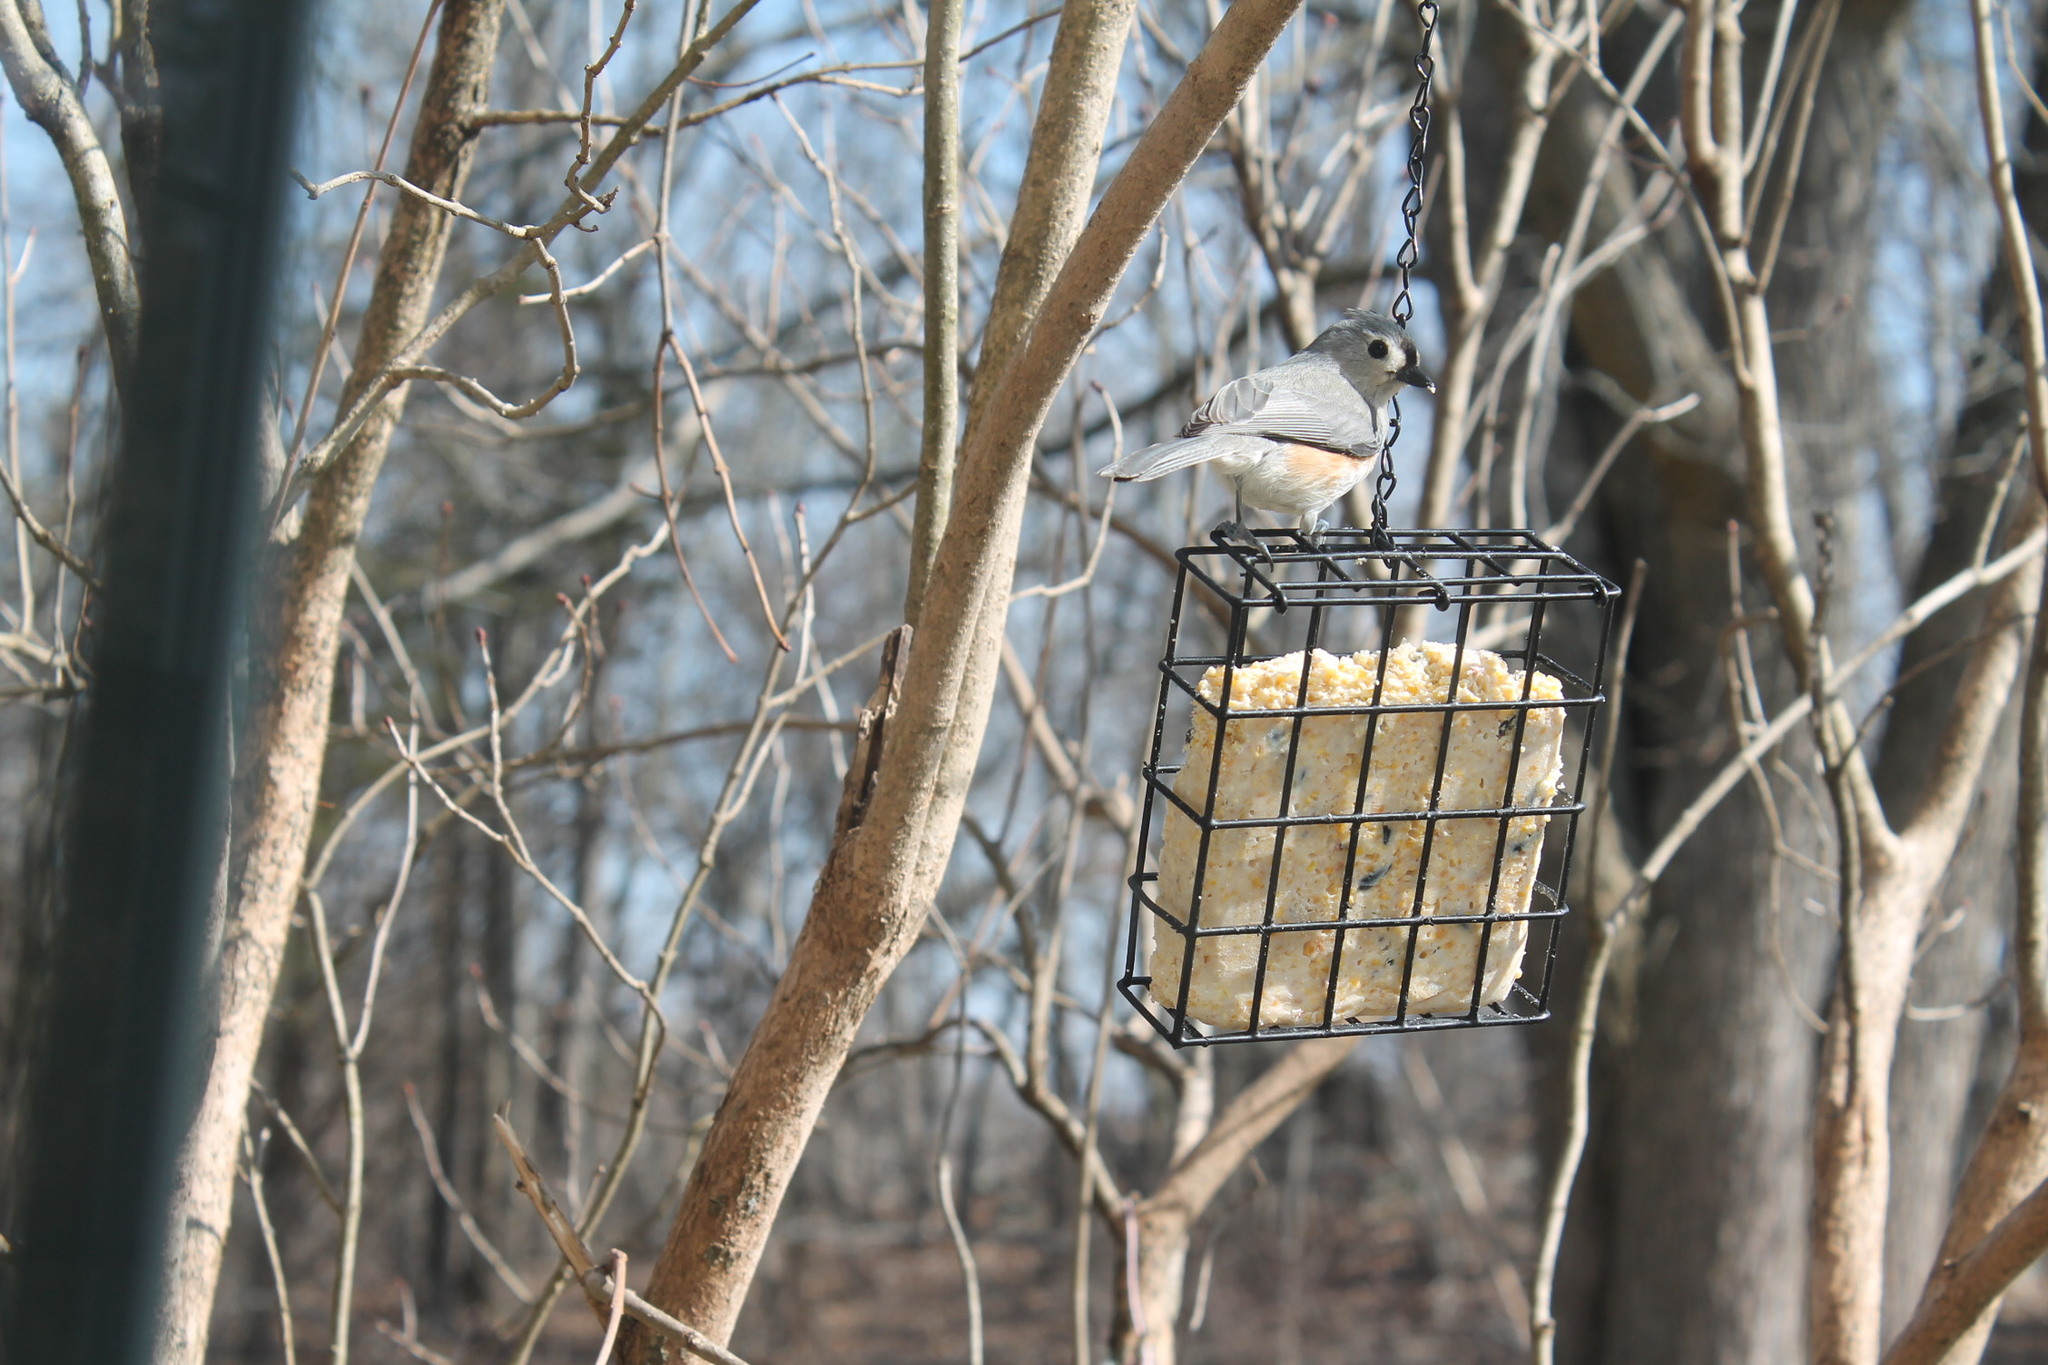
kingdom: Animalia
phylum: Chordata
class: Aves
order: Passeriformes
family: Paridae
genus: Baeolophus
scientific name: Baeolophus bicolor
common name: Tufted titmouse
